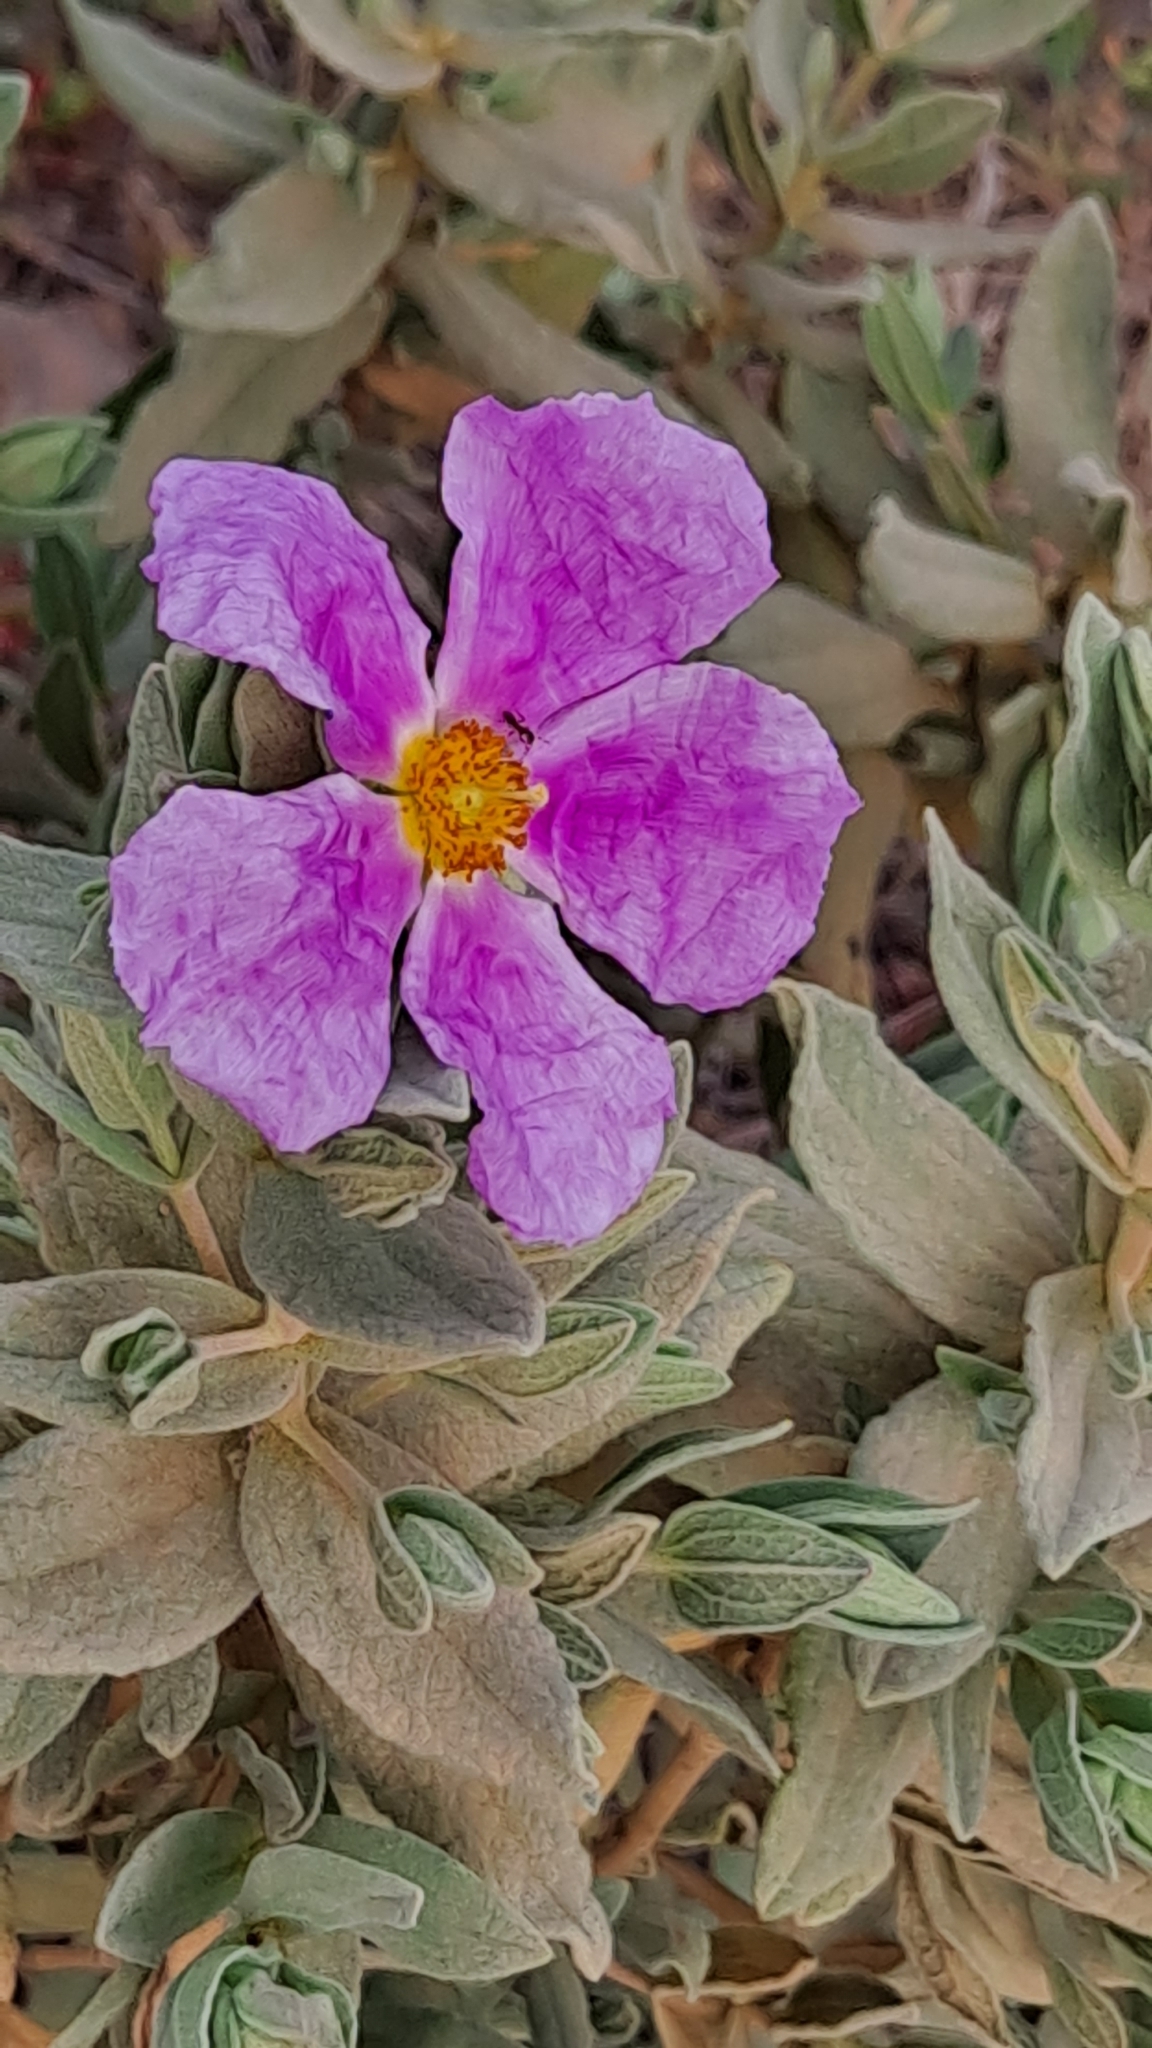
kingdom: Plantae
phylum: Tracheophyta
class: Magnoliopsida
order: Malvales
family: Cistaceae
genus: Cistus
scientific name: Cistus albidus
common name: White-leaf rock-rose
